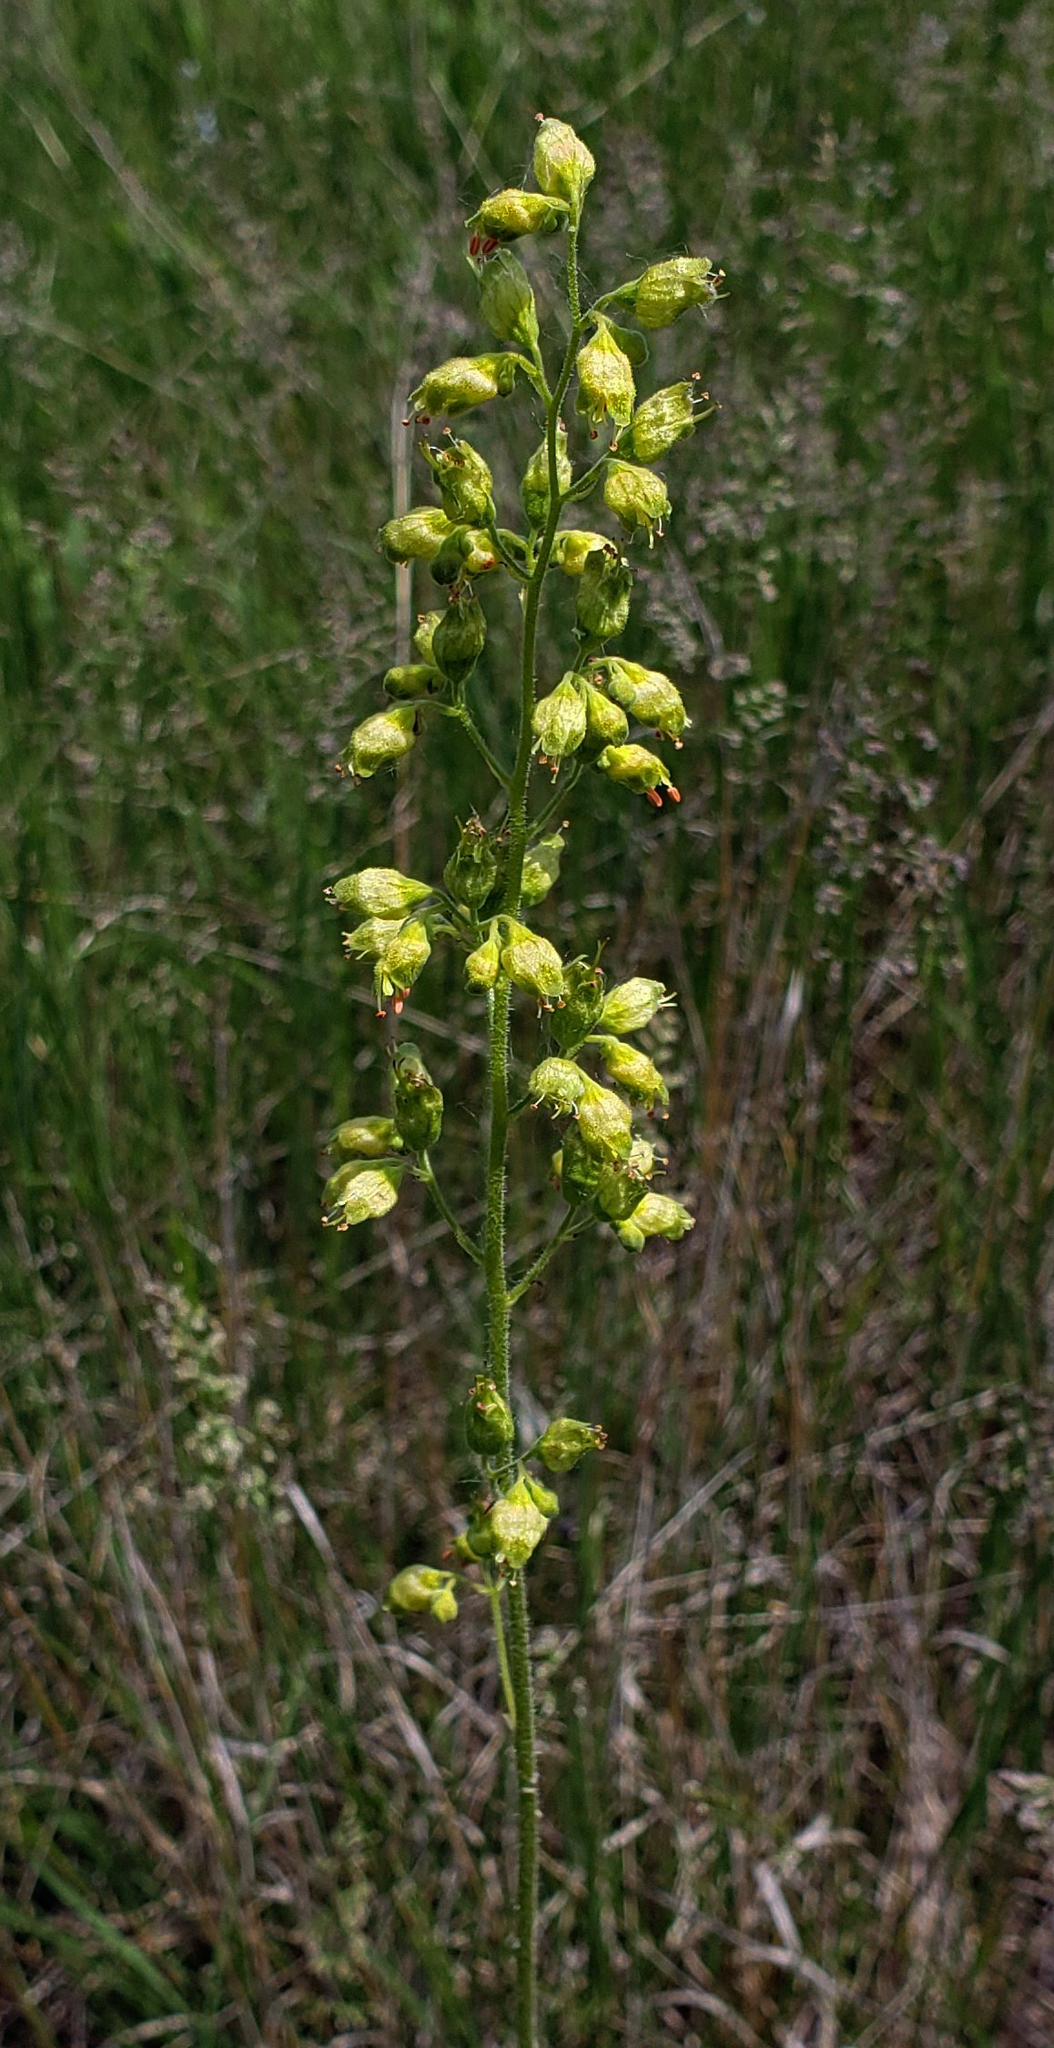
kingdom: Plantae
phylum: Tracheophyta
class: Magnoliopsida
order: Saxifragales
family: Saxifragaceae
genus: Heuchera
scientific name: Heuchera richardsonii
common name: Richardson's alumroot
